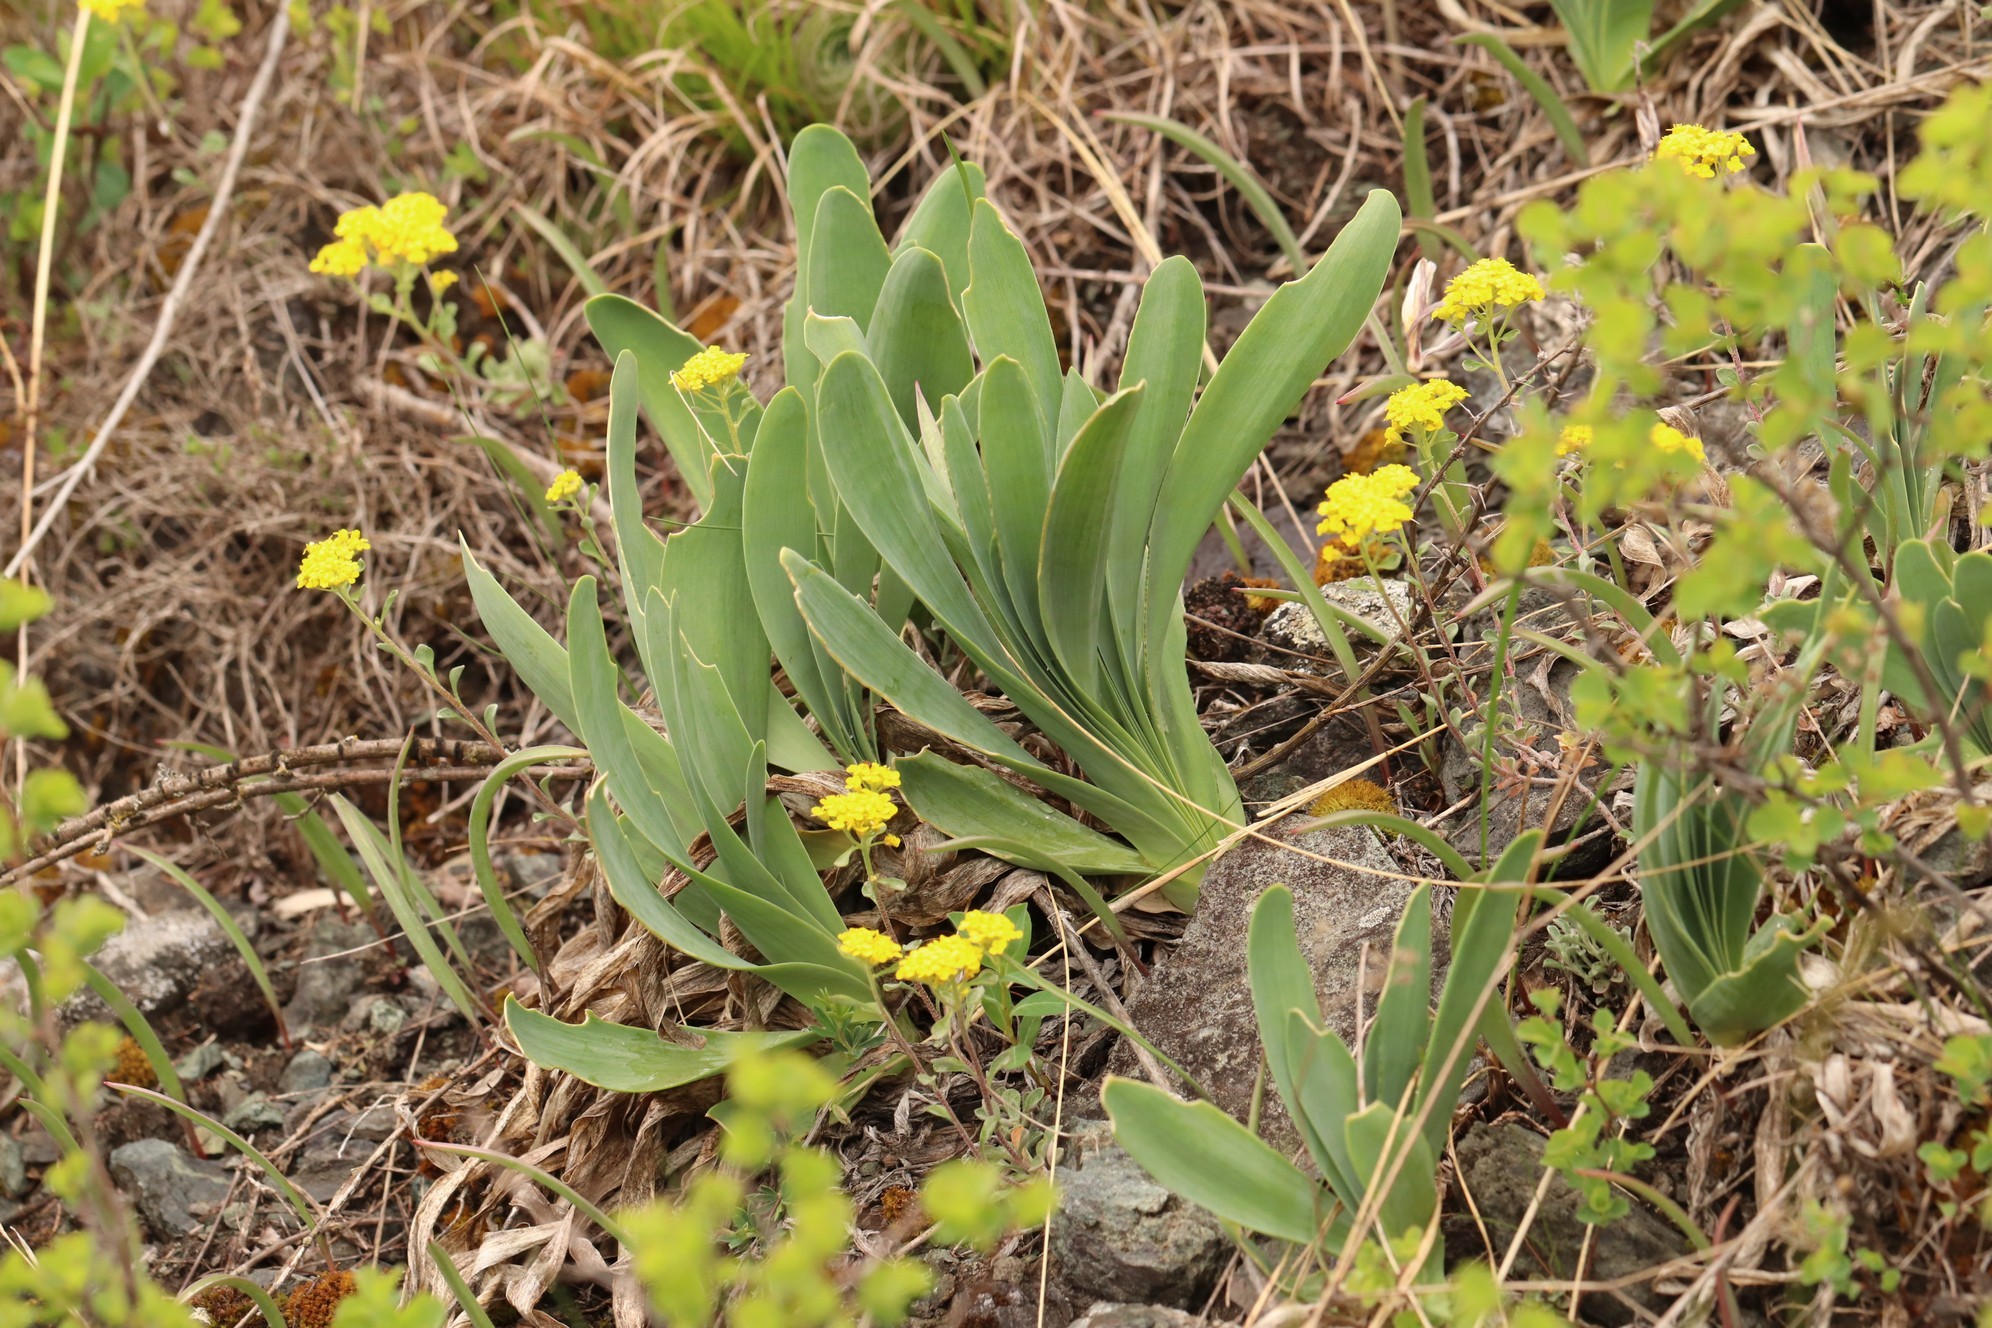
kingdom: Plantae
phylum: Tracheophyta
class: Liliopsida
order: Asparagales
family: Amaryllidaceae
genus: Allium
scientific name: Allium nutans
